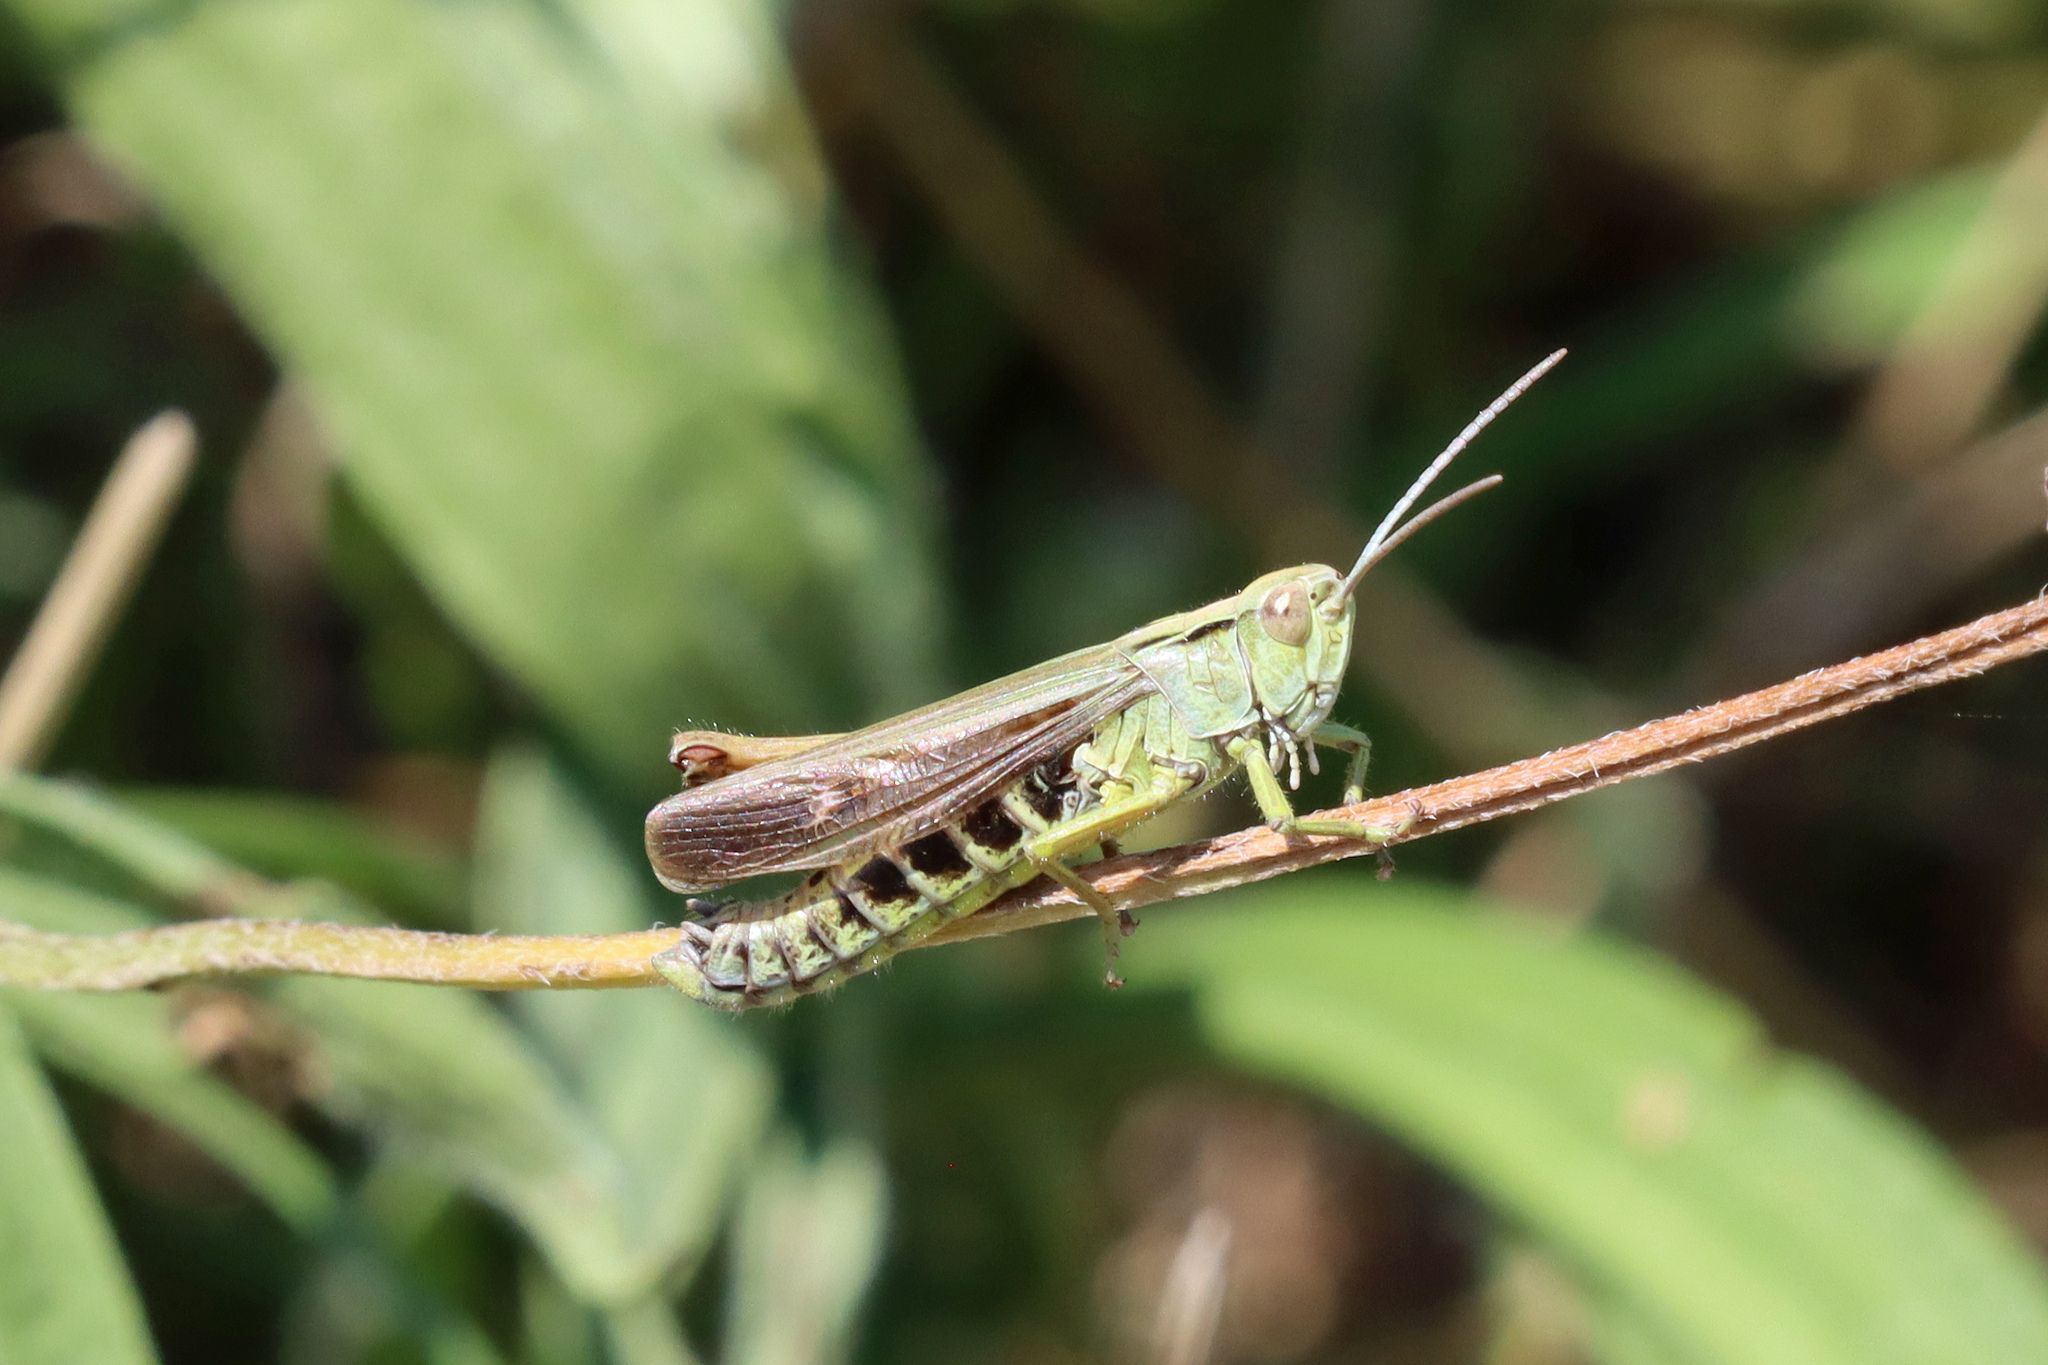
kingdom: Animalia
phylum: Arthropoda
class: Insecta
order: Orthoptera
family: Acrididae
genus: Omocestus
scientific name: Omocestus viridulus
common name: Common green grasshopper
